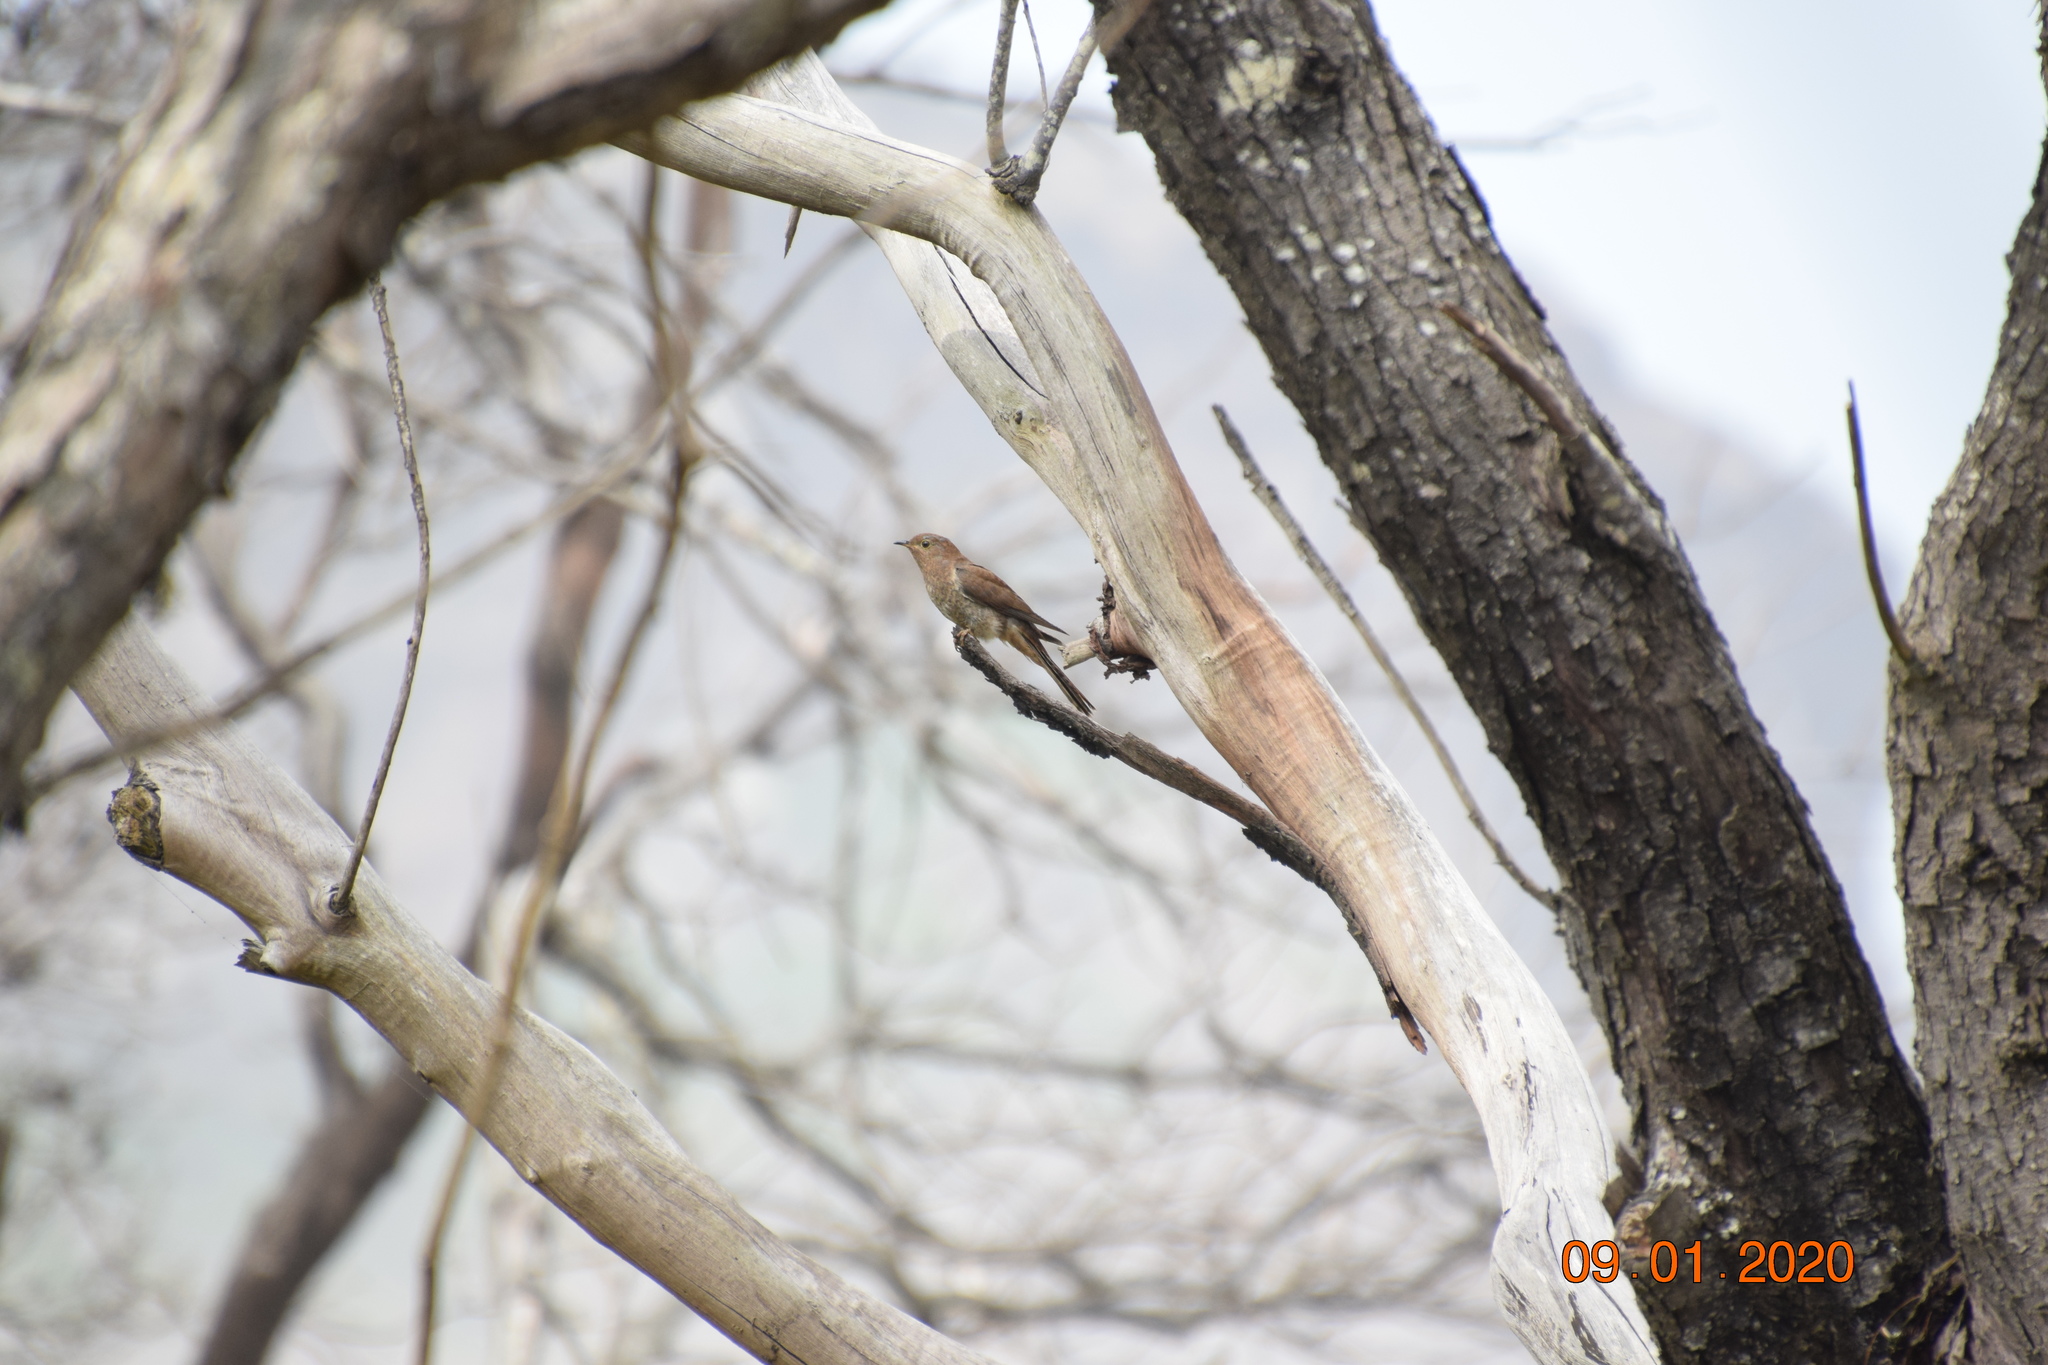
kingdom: Animalia
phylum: Chordata
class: Aves
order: Cuculiformes
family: Cuculidae
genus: Cacomantis
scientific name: Cacomantis flabelliformis
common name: Fan-tailed cuckoo
